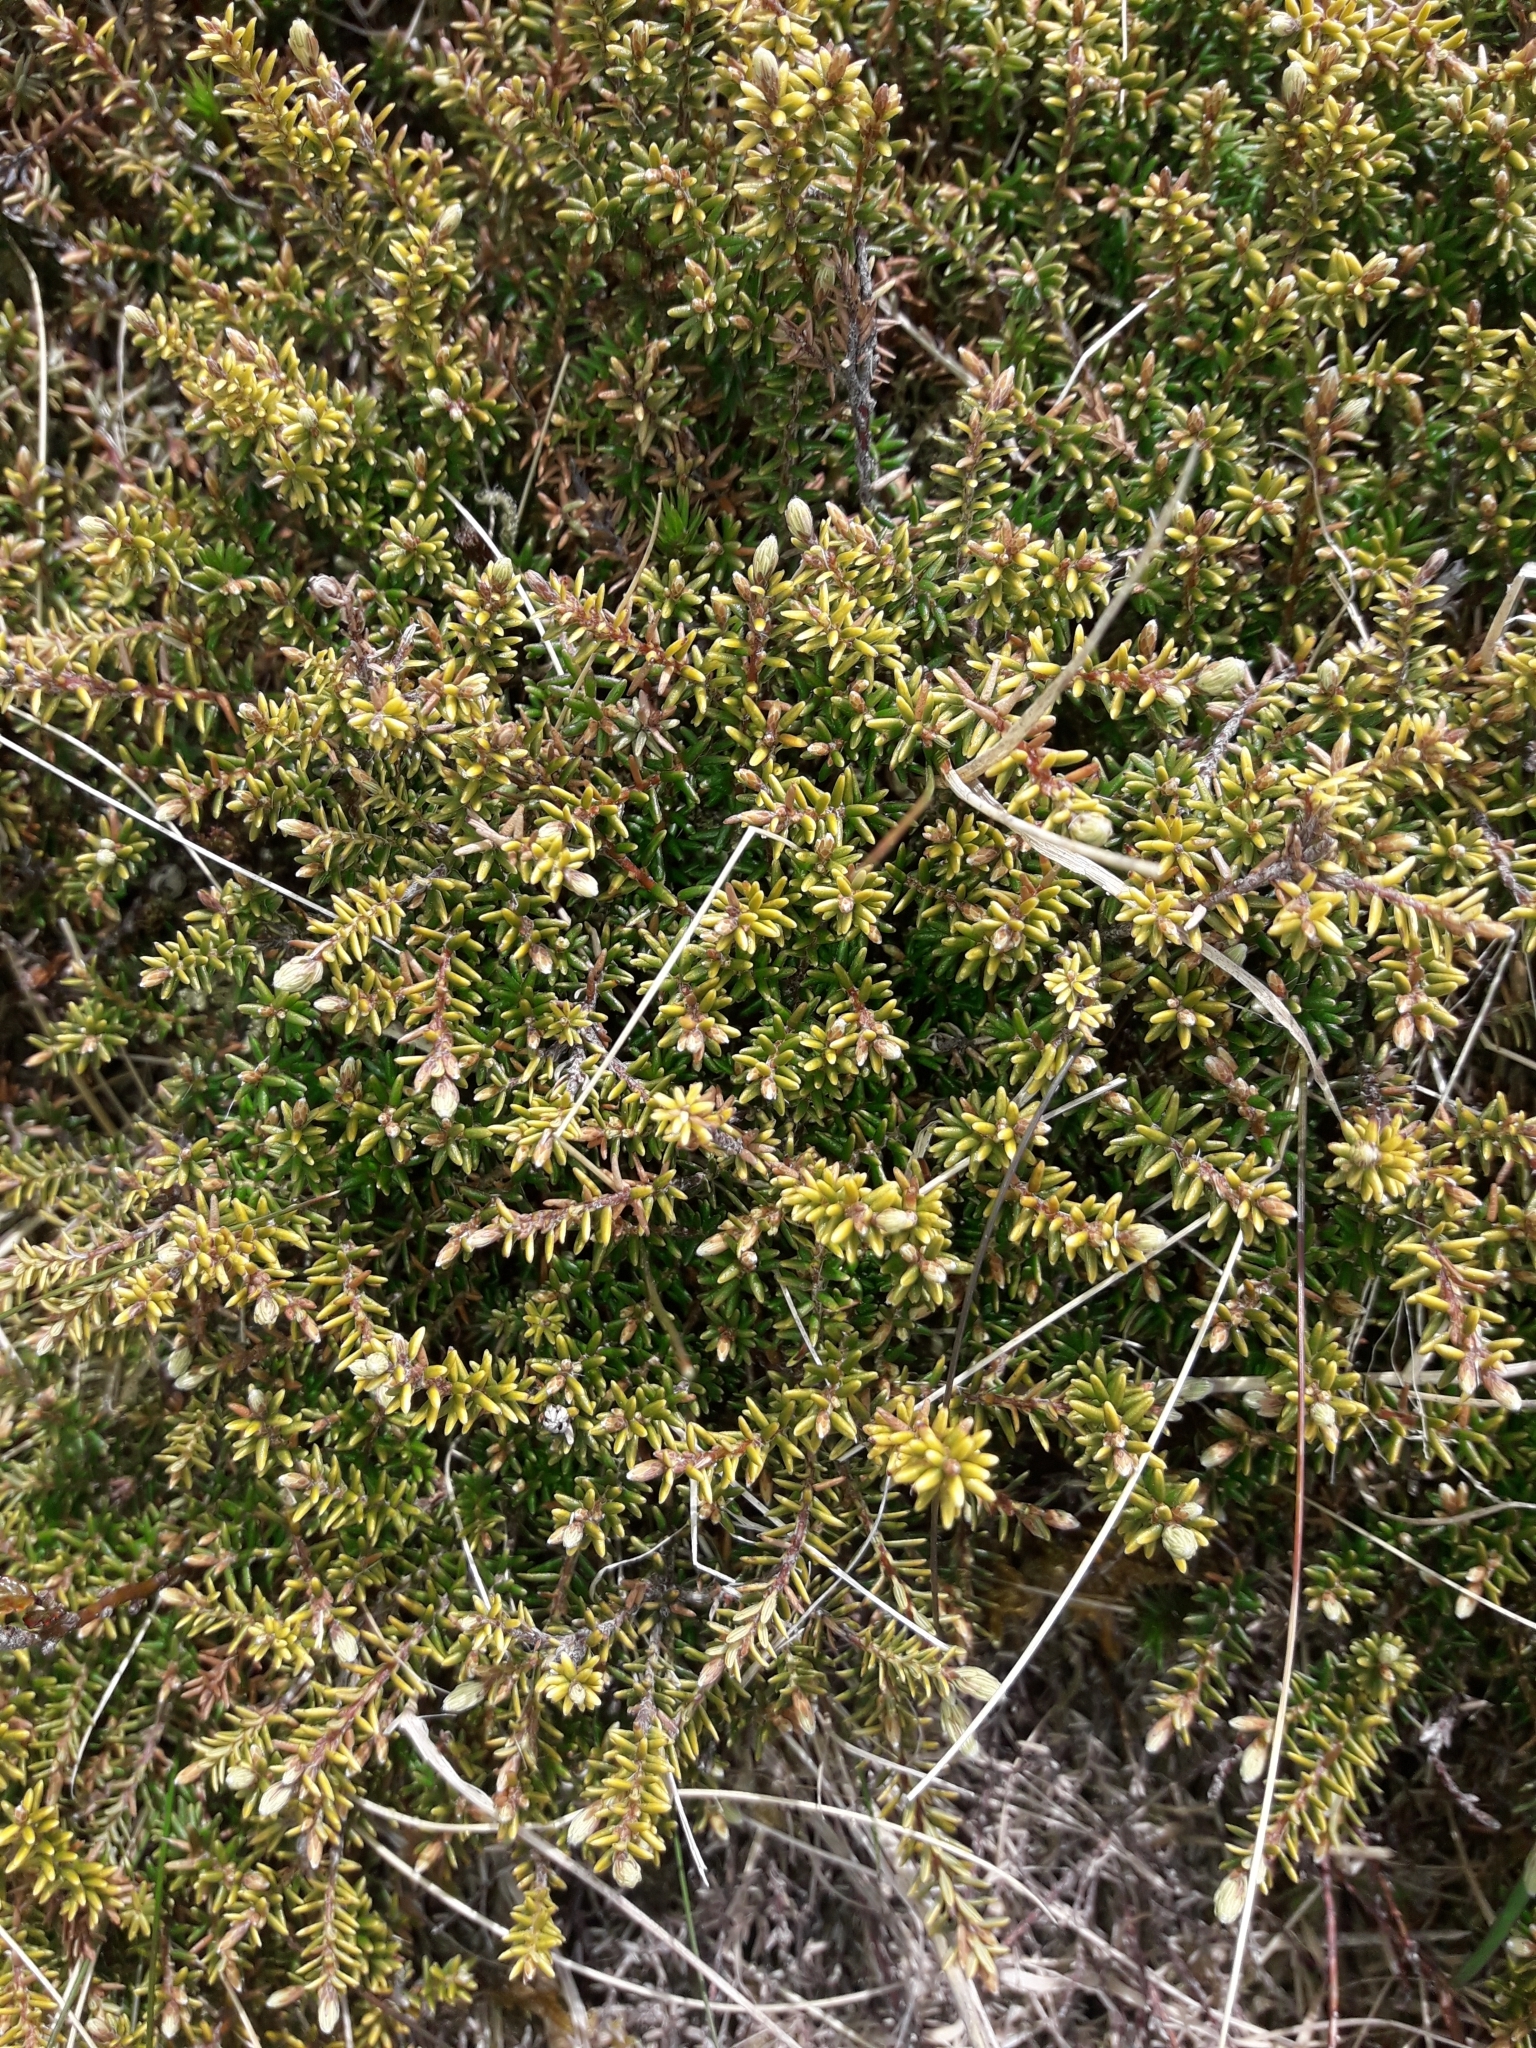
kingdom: Plantae
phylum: Tracheophyta
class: Magnoliopsida
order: Ericales
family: Ericaceae
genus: Androstoma
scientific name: Androstoma empetrifolia
